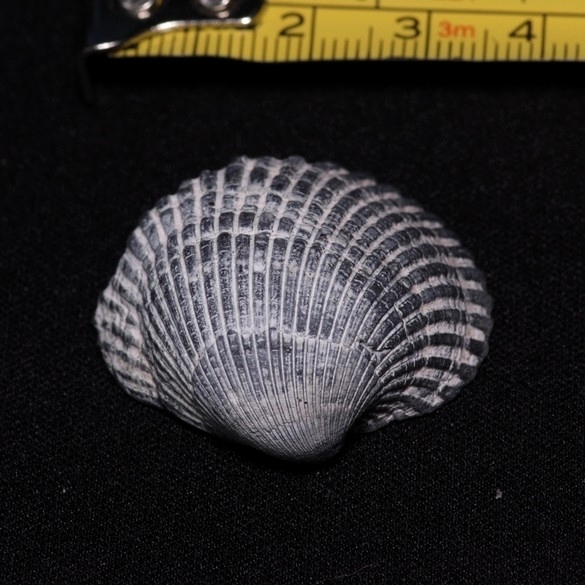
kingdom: Animalia
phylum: Mollusca
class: Bivalvia
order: Arcida
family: Arcidae
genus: Lunarca
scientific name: Lunarca ovalis
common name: Blood ark
